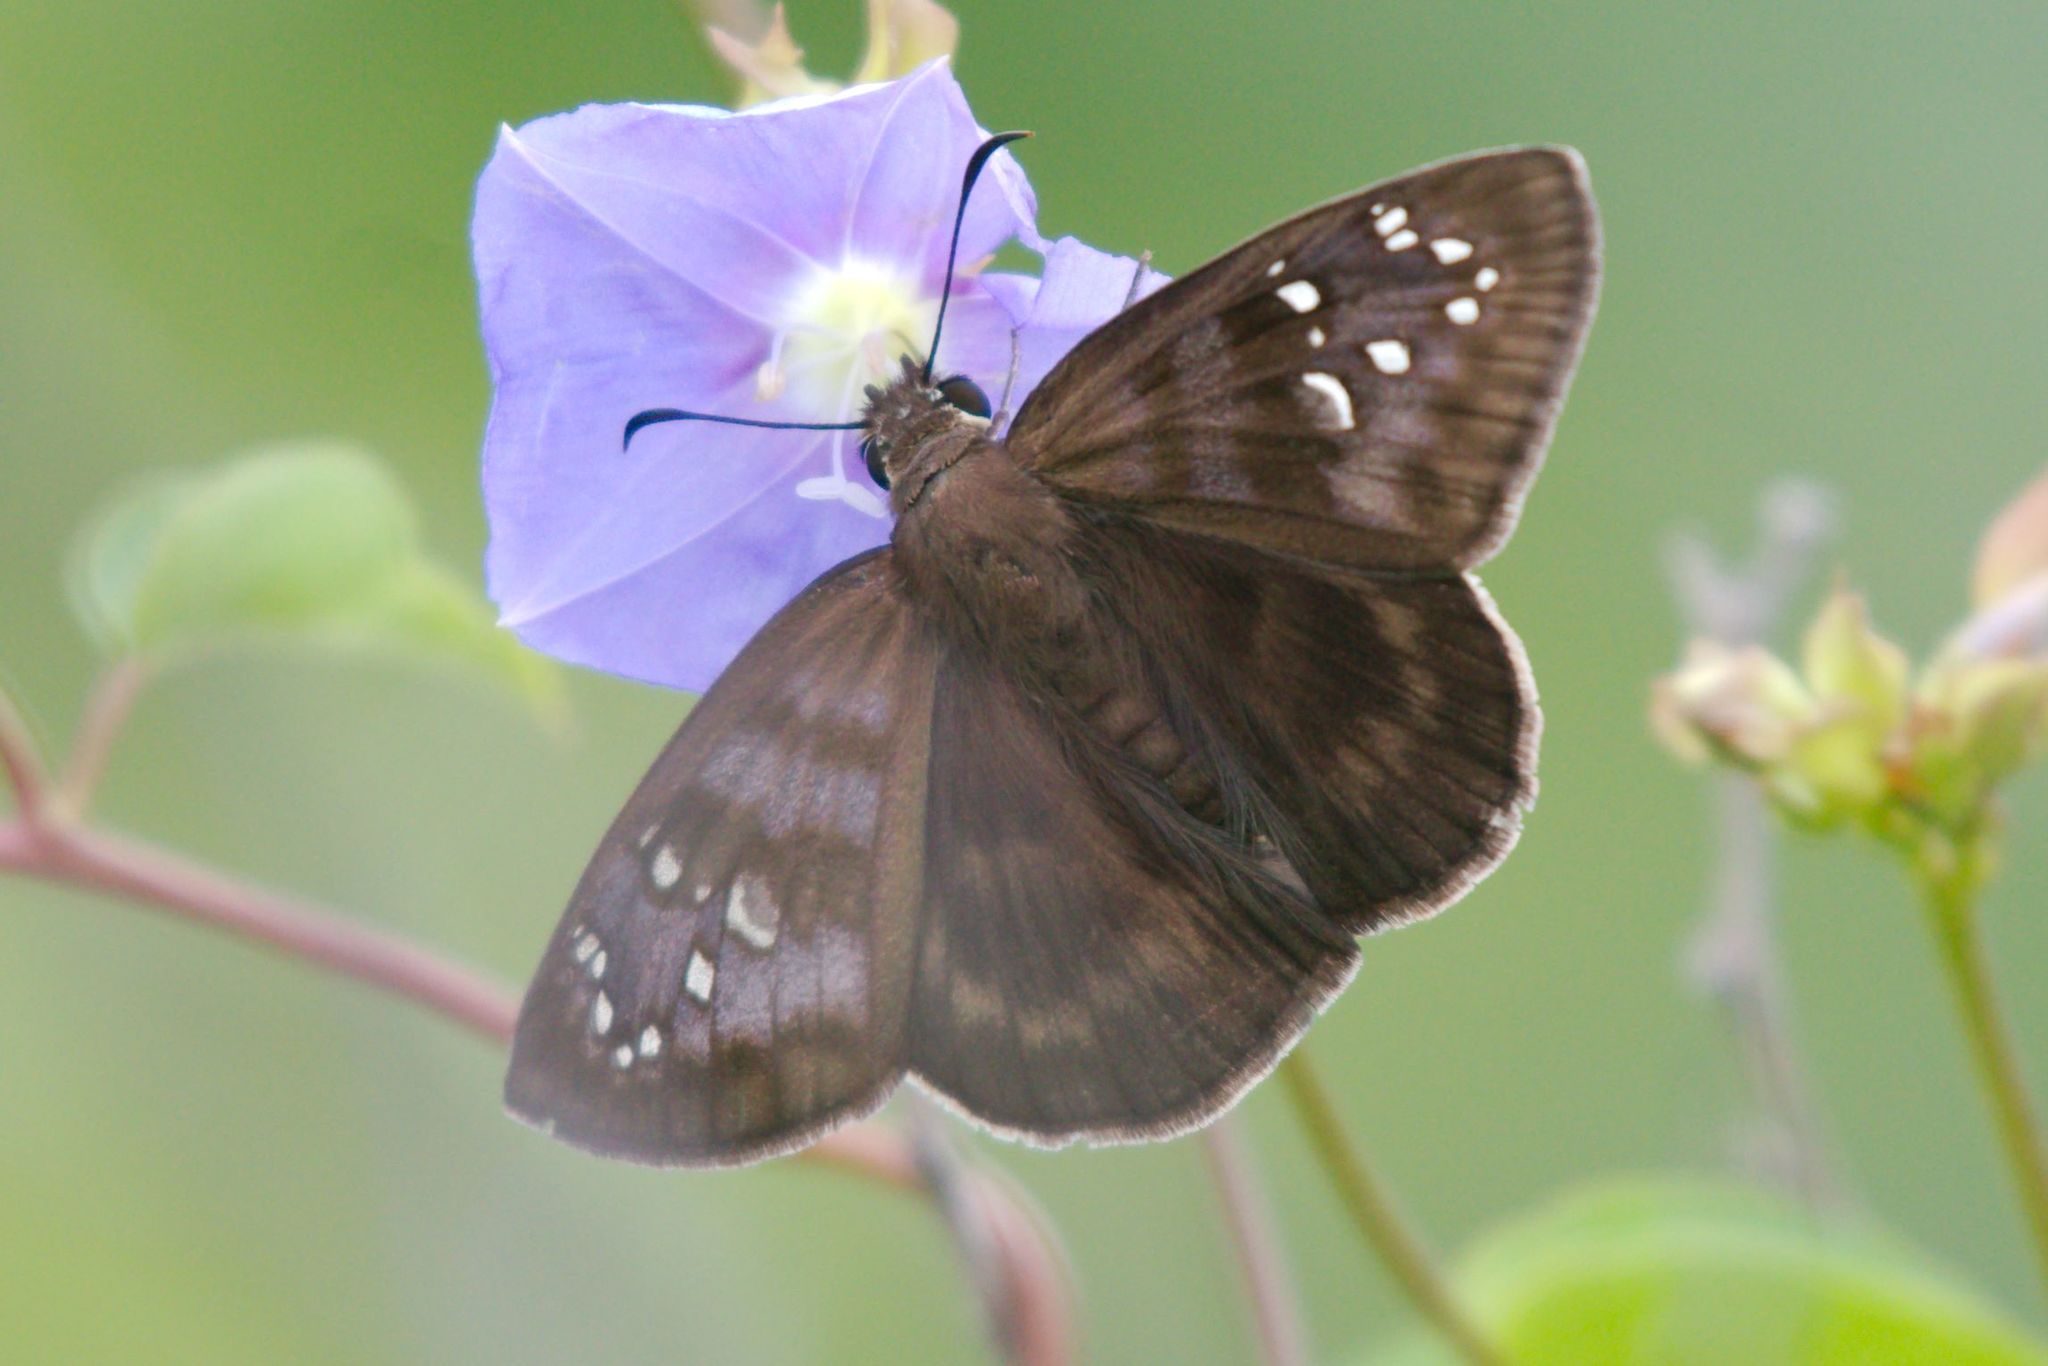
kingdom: Animalia
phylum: Arthropoda
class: Insecta
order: Lepidoptera
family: Hesperiidae
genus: Ephyriades
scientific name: Ephyriades brunnea
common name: Florida duskywing
